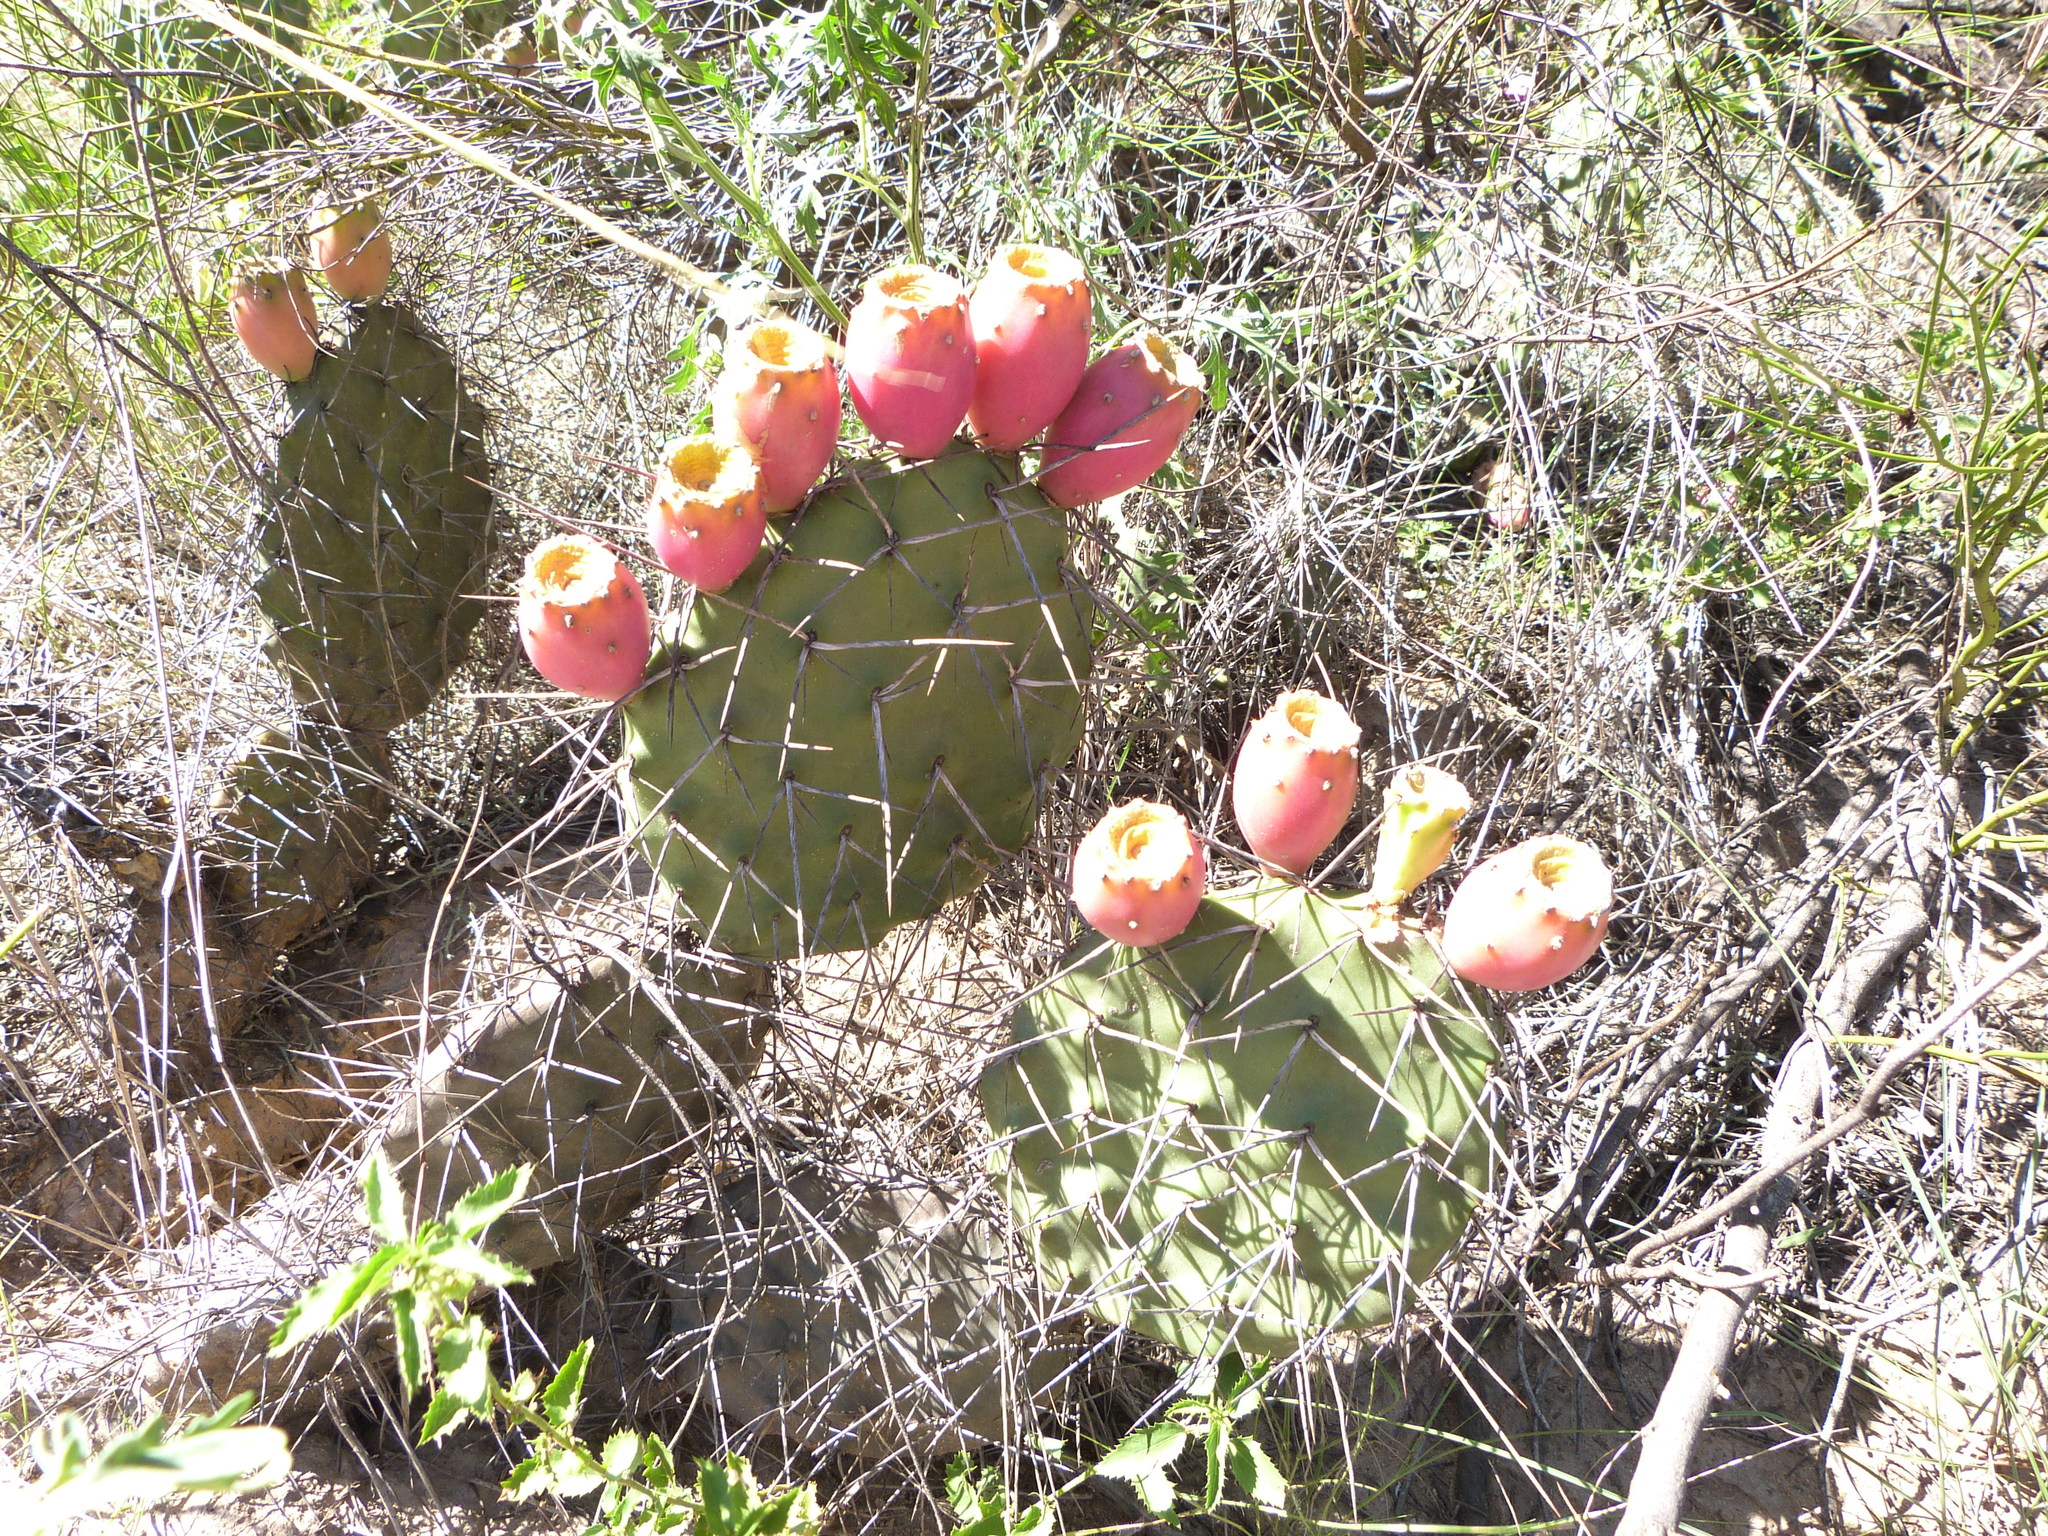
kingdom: Plantae
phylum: Tracheophyta
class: Magnoliopsida
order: Caryophyllales
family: Cactaceae
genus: Opuntia
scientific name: Opuntia sulphurea
